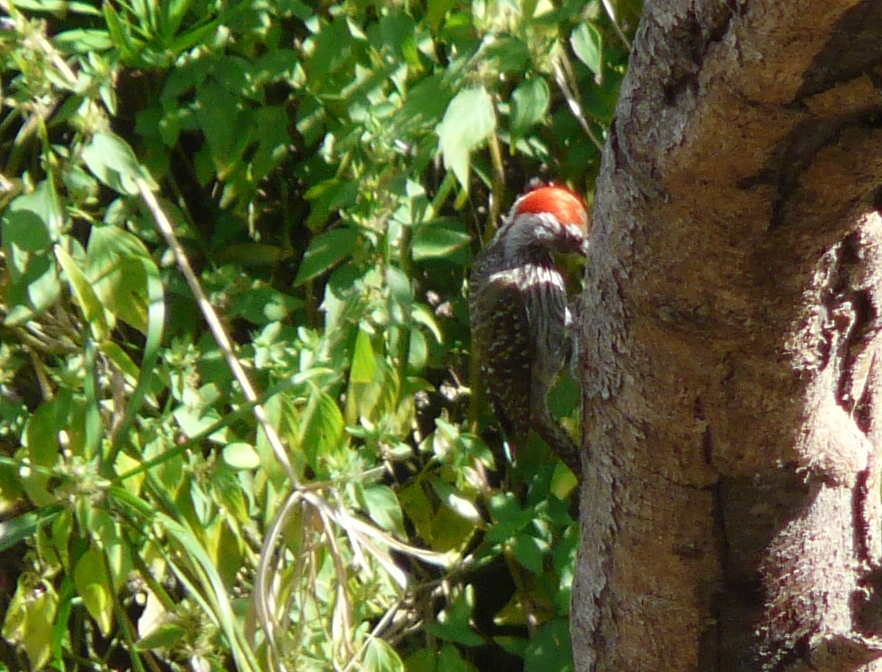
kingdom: Animalia
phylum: Chordata
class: Aves
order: Piciformes
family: Picidae
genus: Dendropicos
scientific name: Dendropicos fuscescens
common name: Cardinal woodpecker
